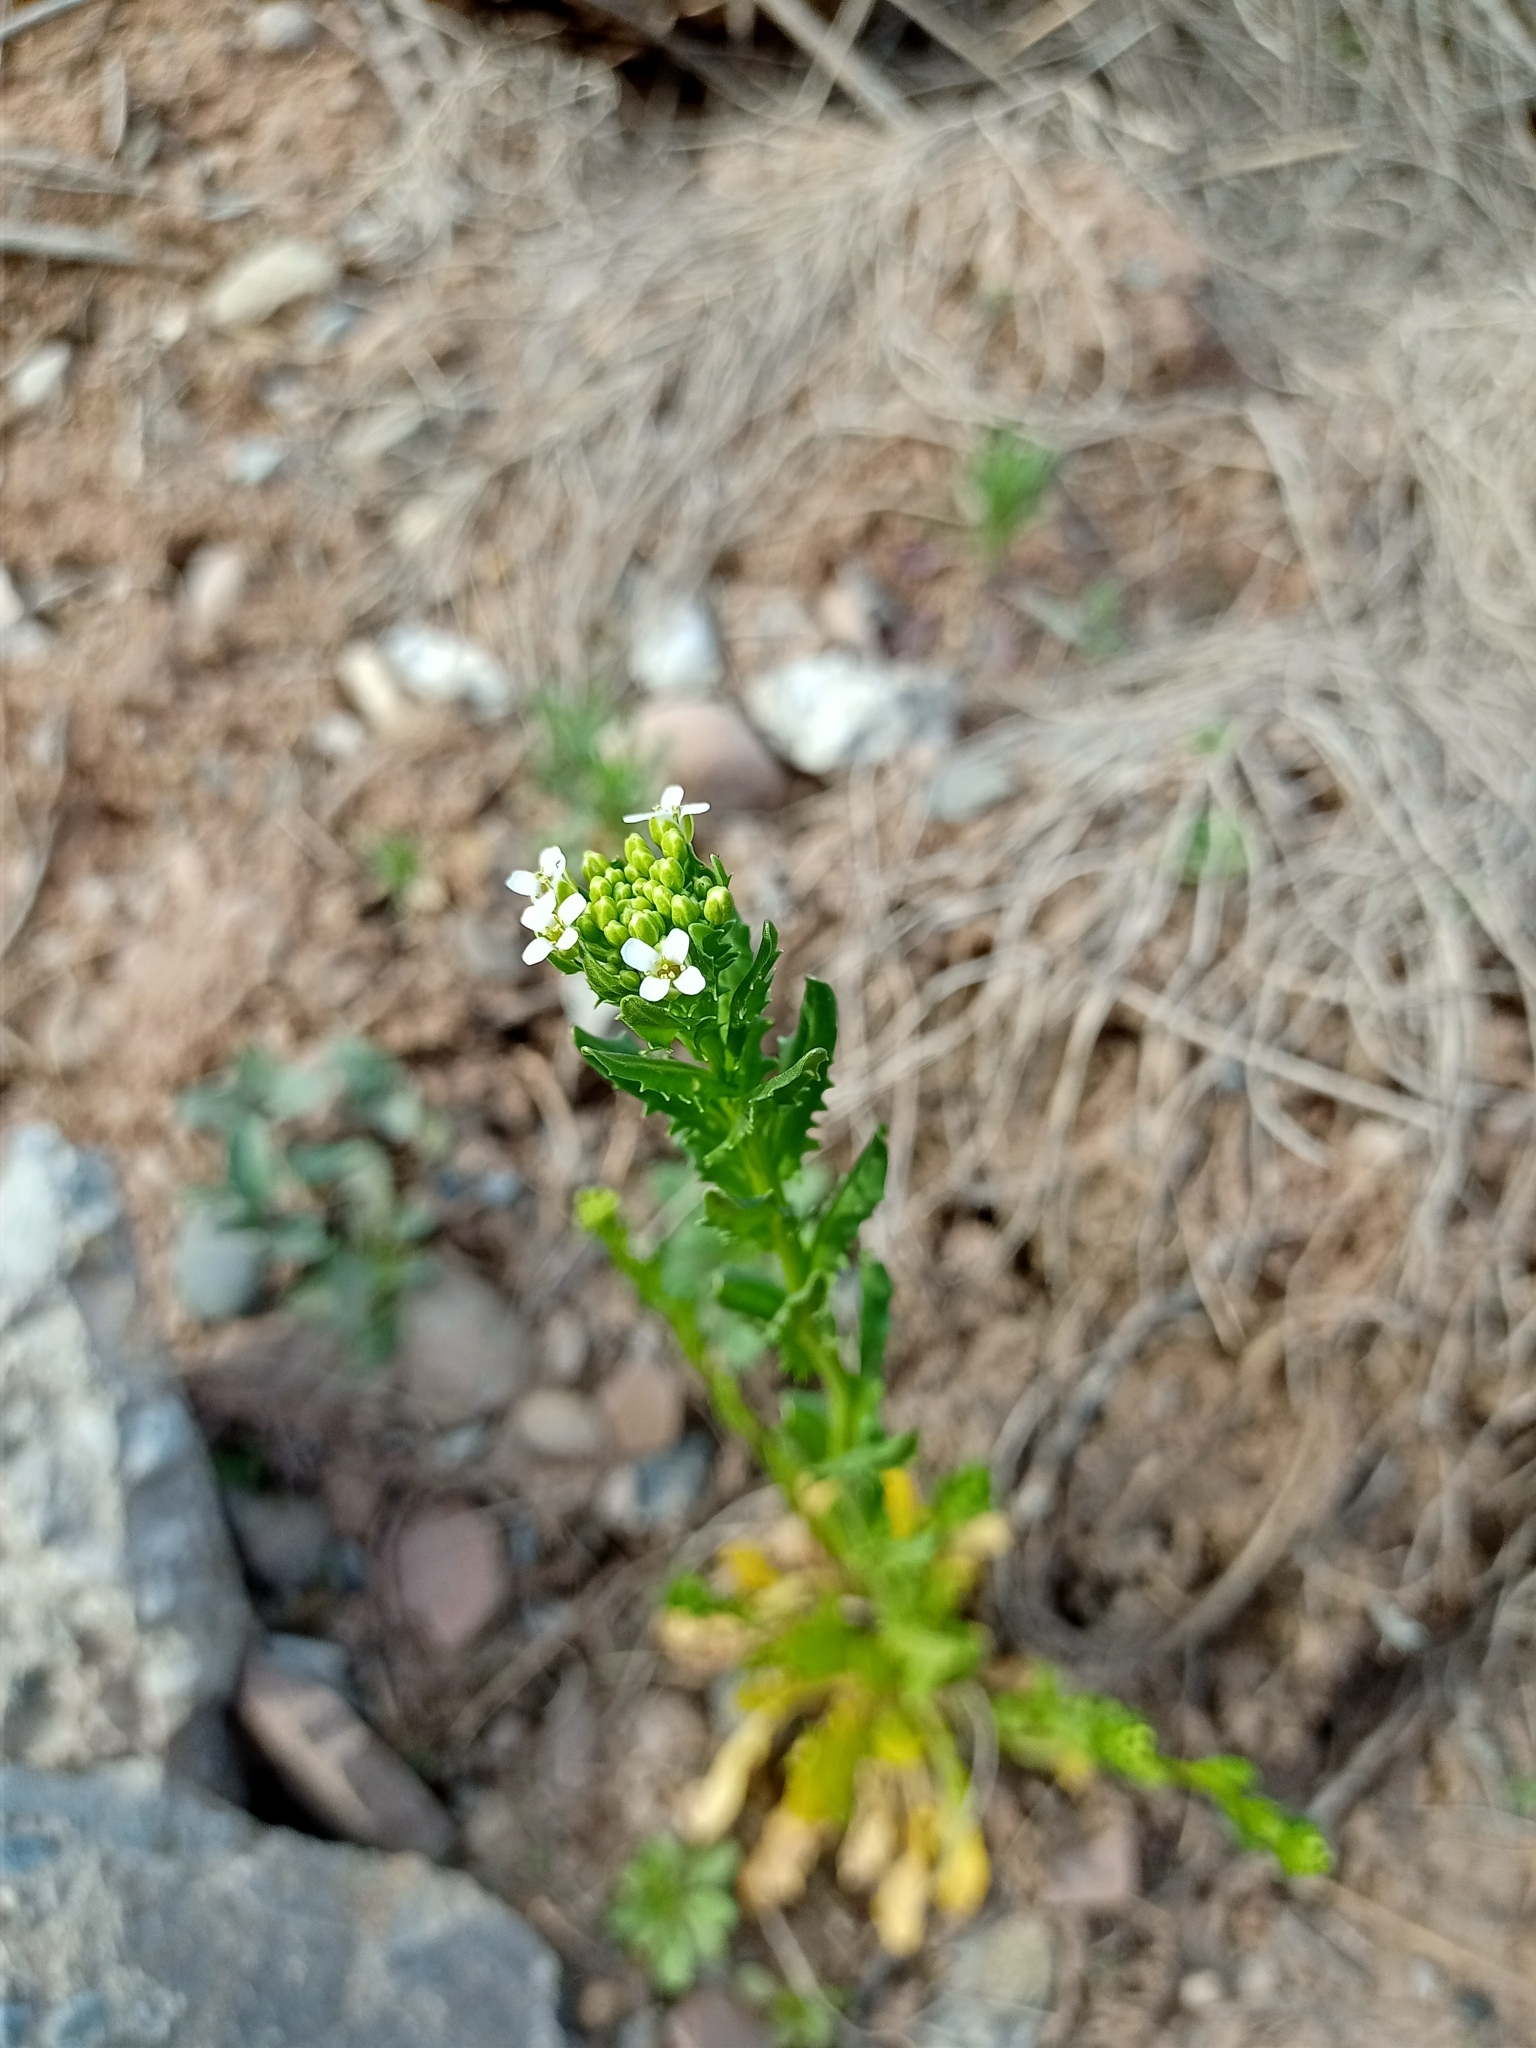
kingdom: Plantae
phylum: Tracheophyta
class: Magnoliopsida
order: Brassicales
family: Brassicaceae
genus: Thlaspi
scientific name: Thlaspi arvense
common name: Field pennycress
